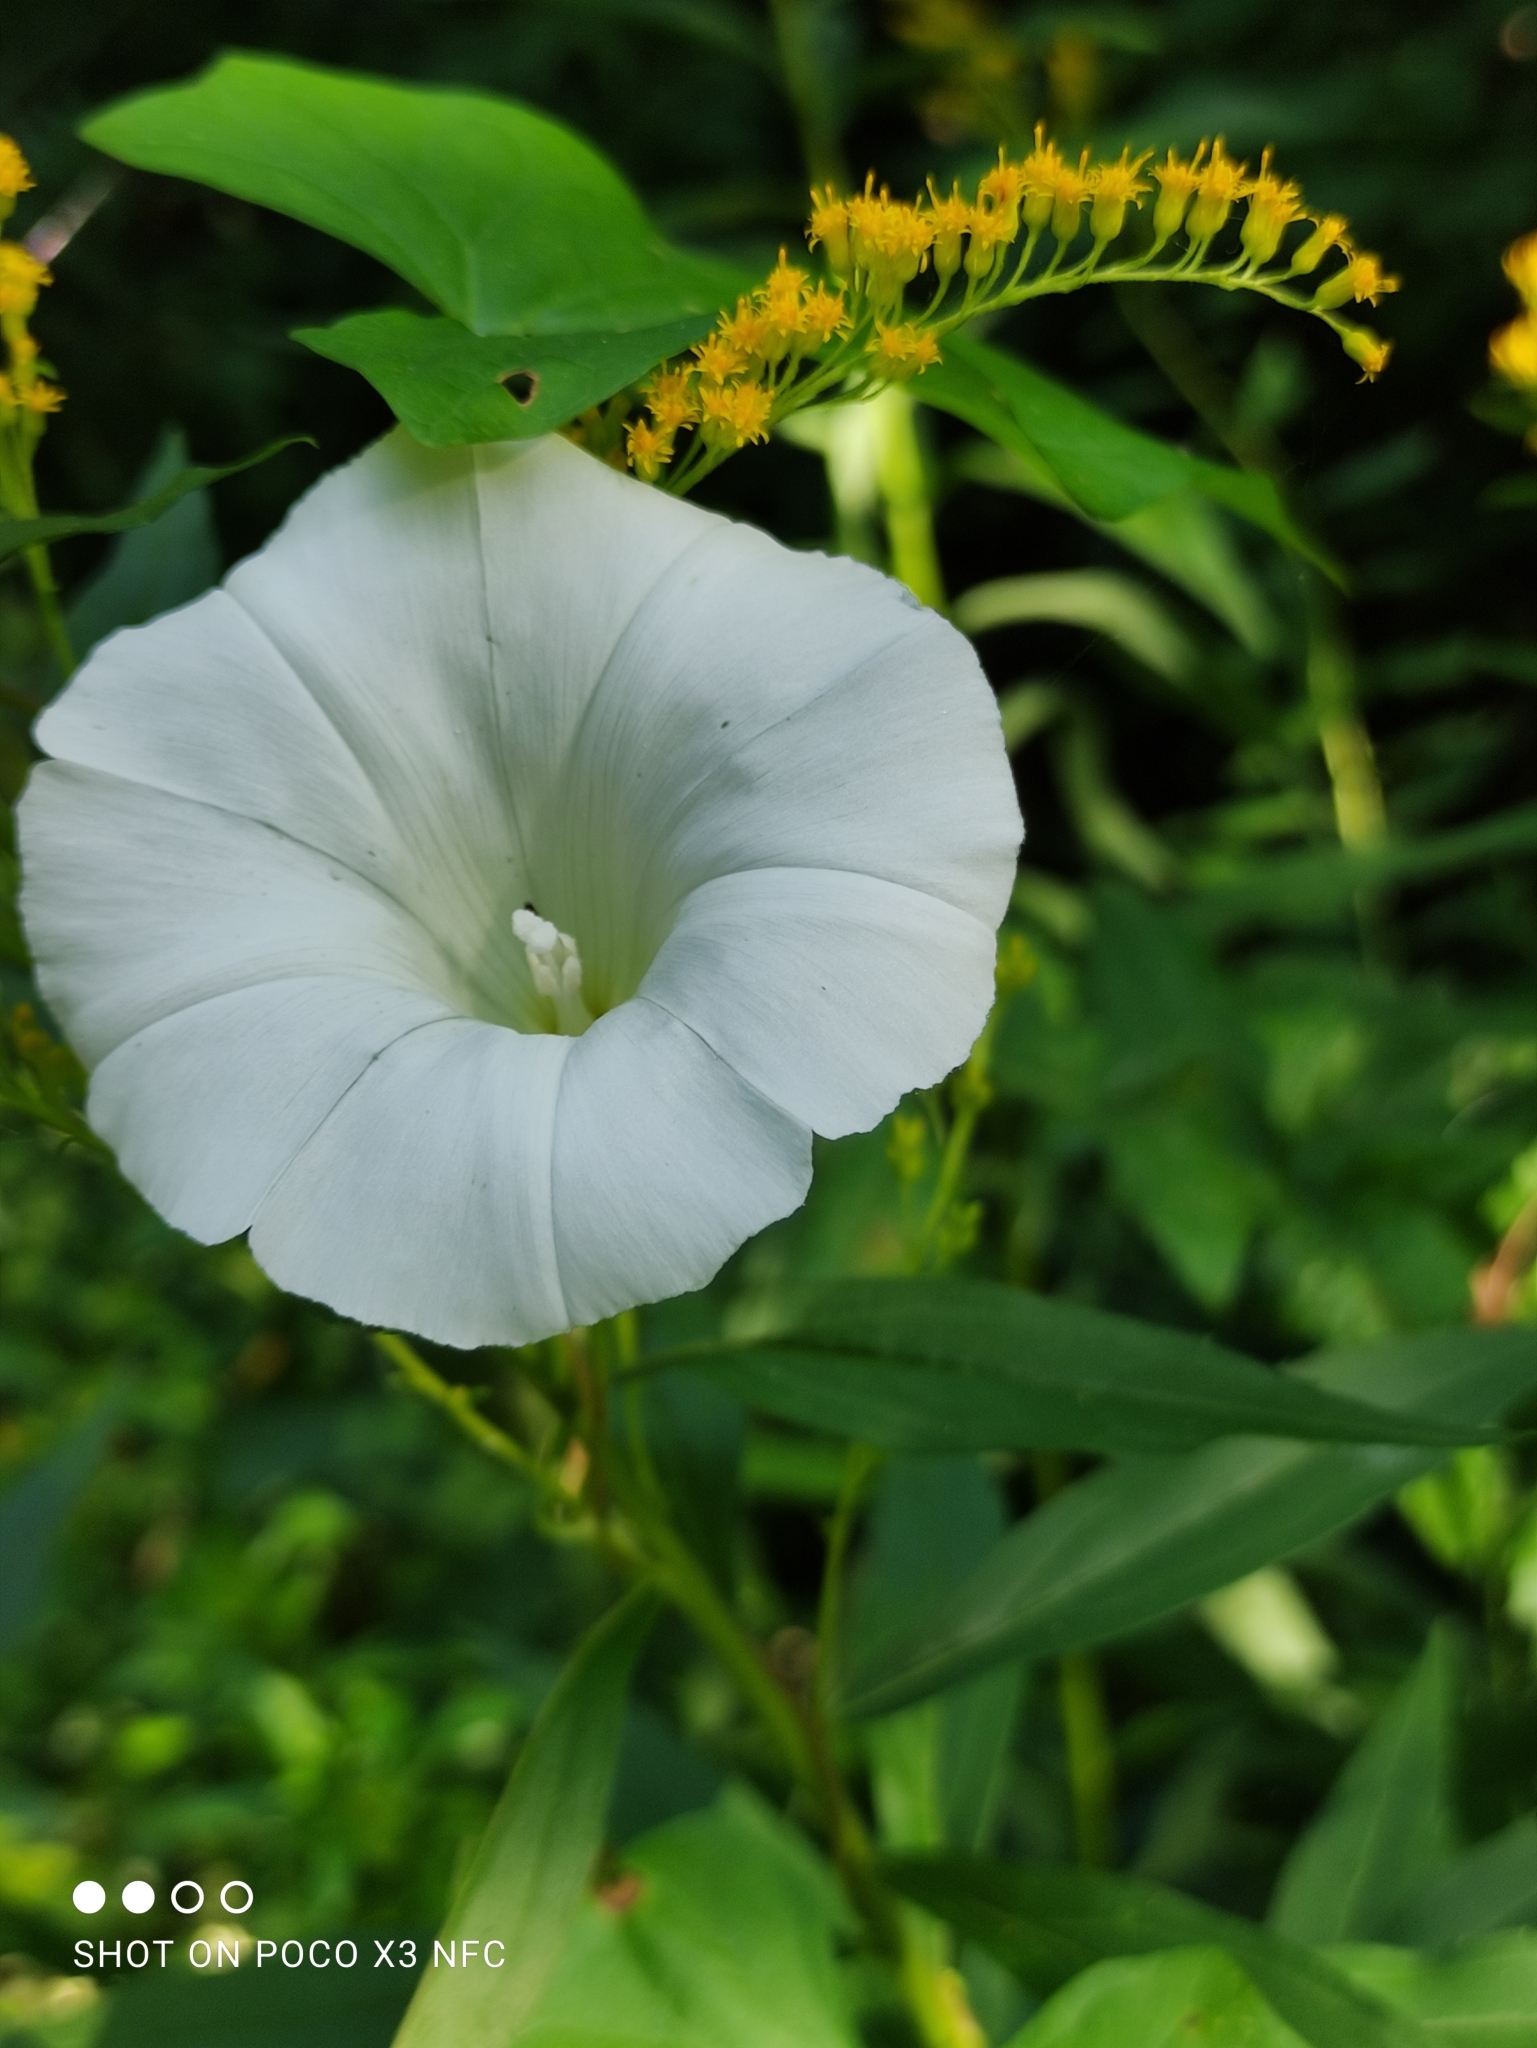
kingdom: Plantae
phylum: Tracheophyta
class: Magnoliopsida
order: Solanales
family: Convolvulaceae
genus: Calystegia
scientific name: Calystegia sepium
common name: Hedge bindweed
